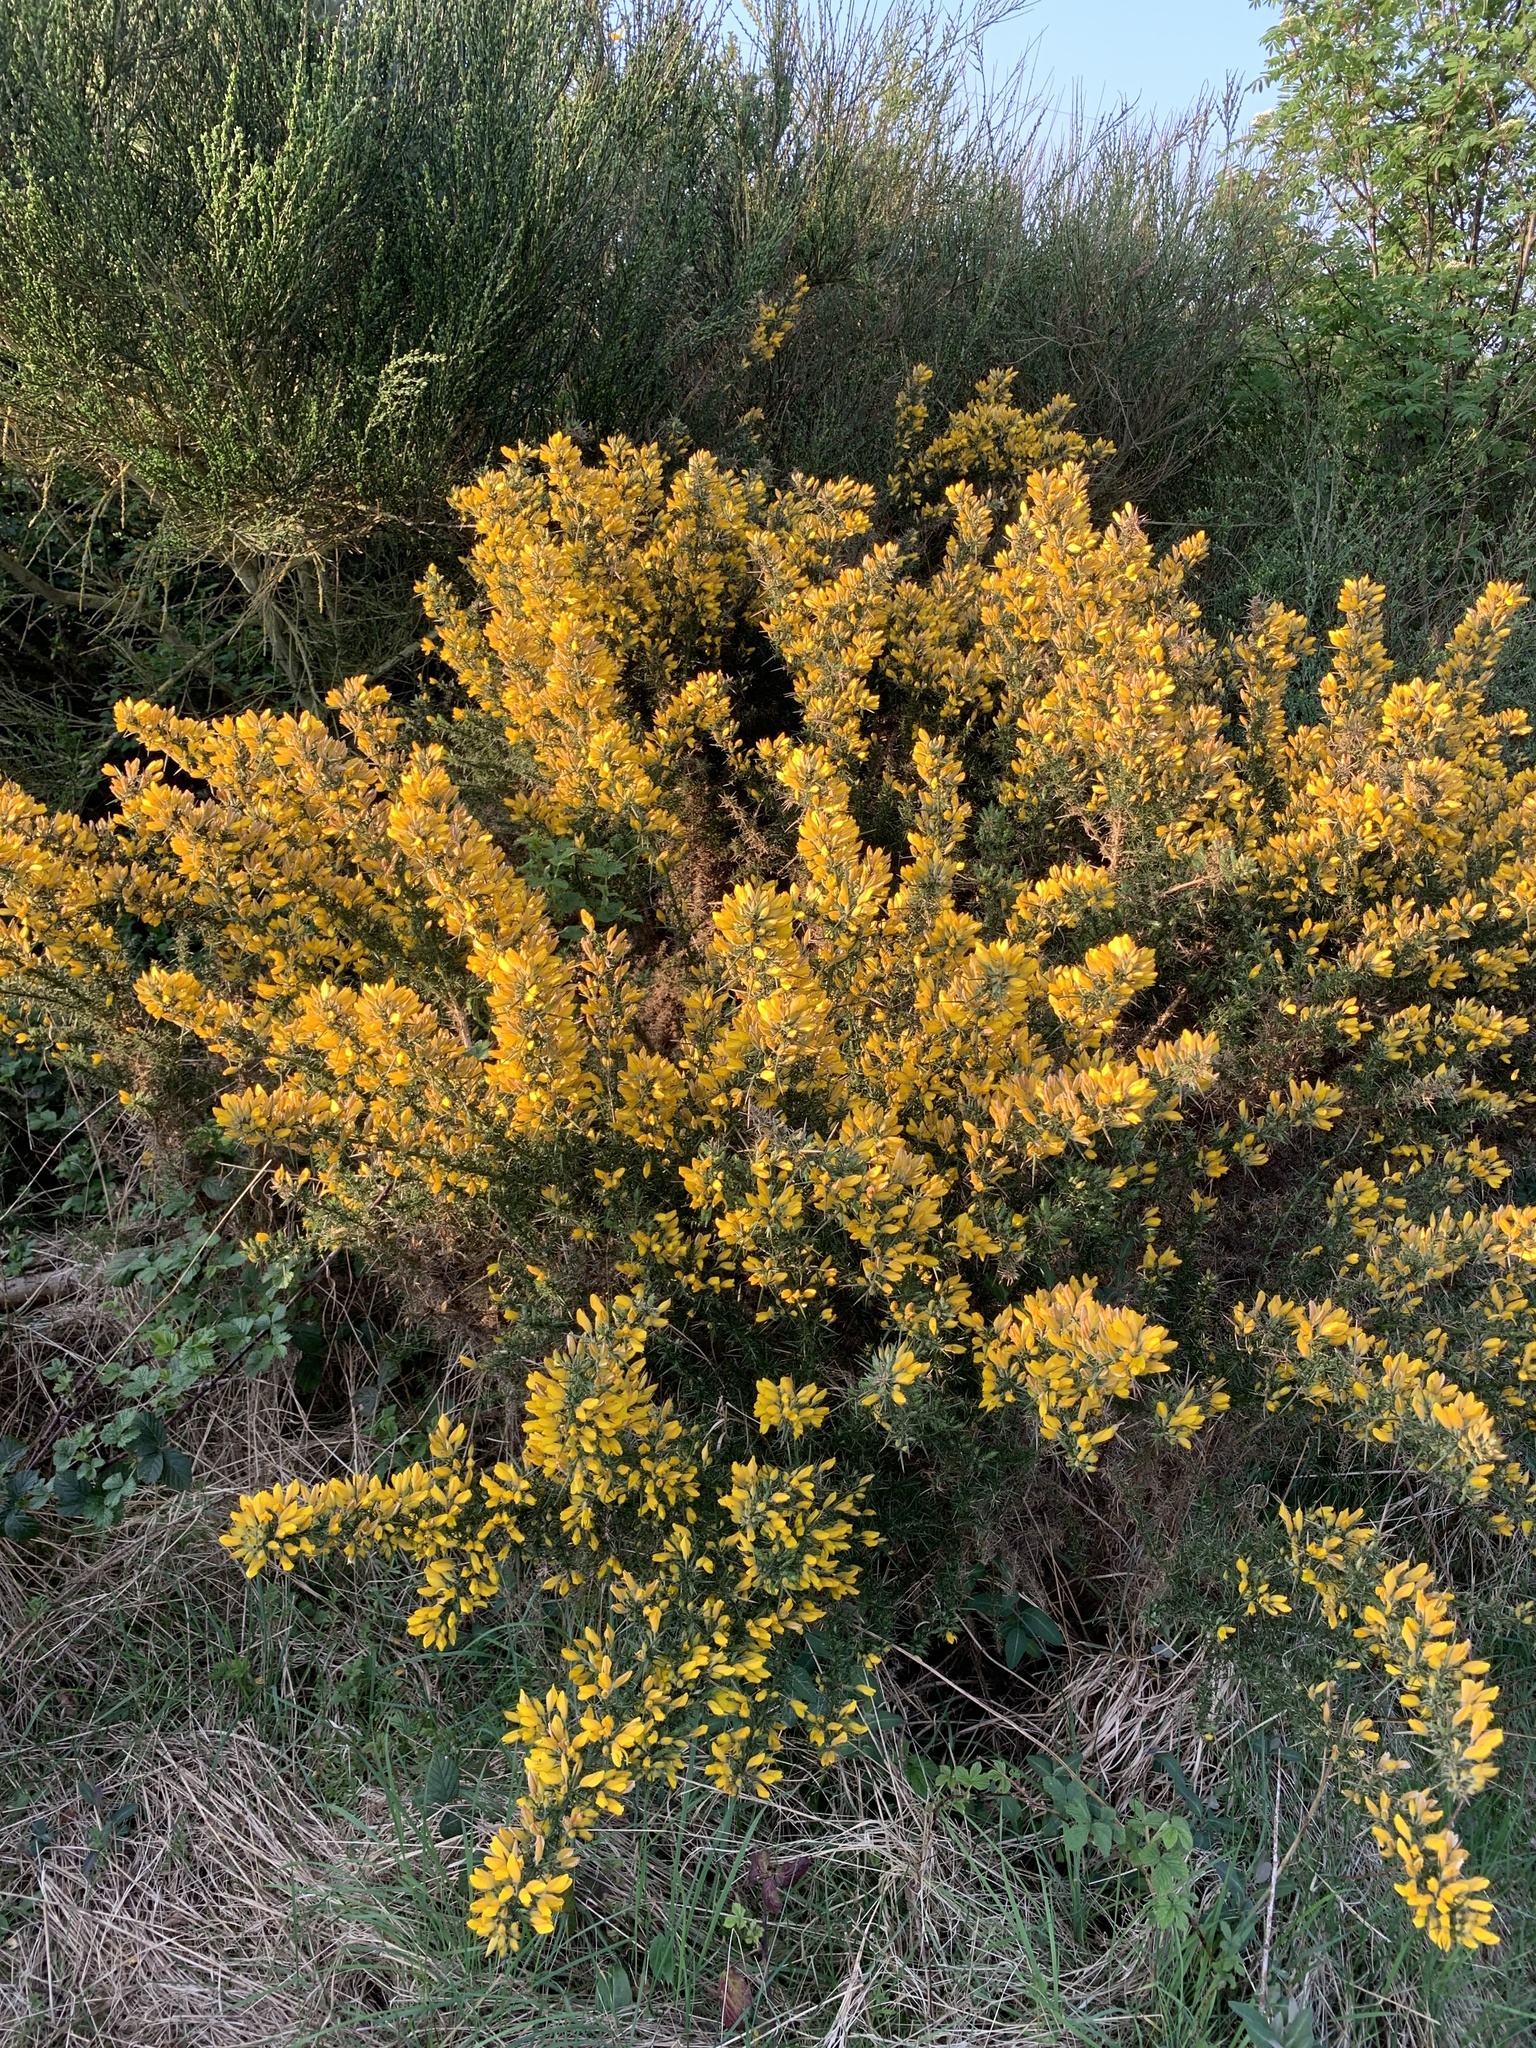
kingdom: Plantae
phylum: Tracheophyta
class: Magnoliopsida
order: Fabales
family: Fabaceae
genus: Ulex
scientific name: Ulex europaeus
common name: Common gorse
